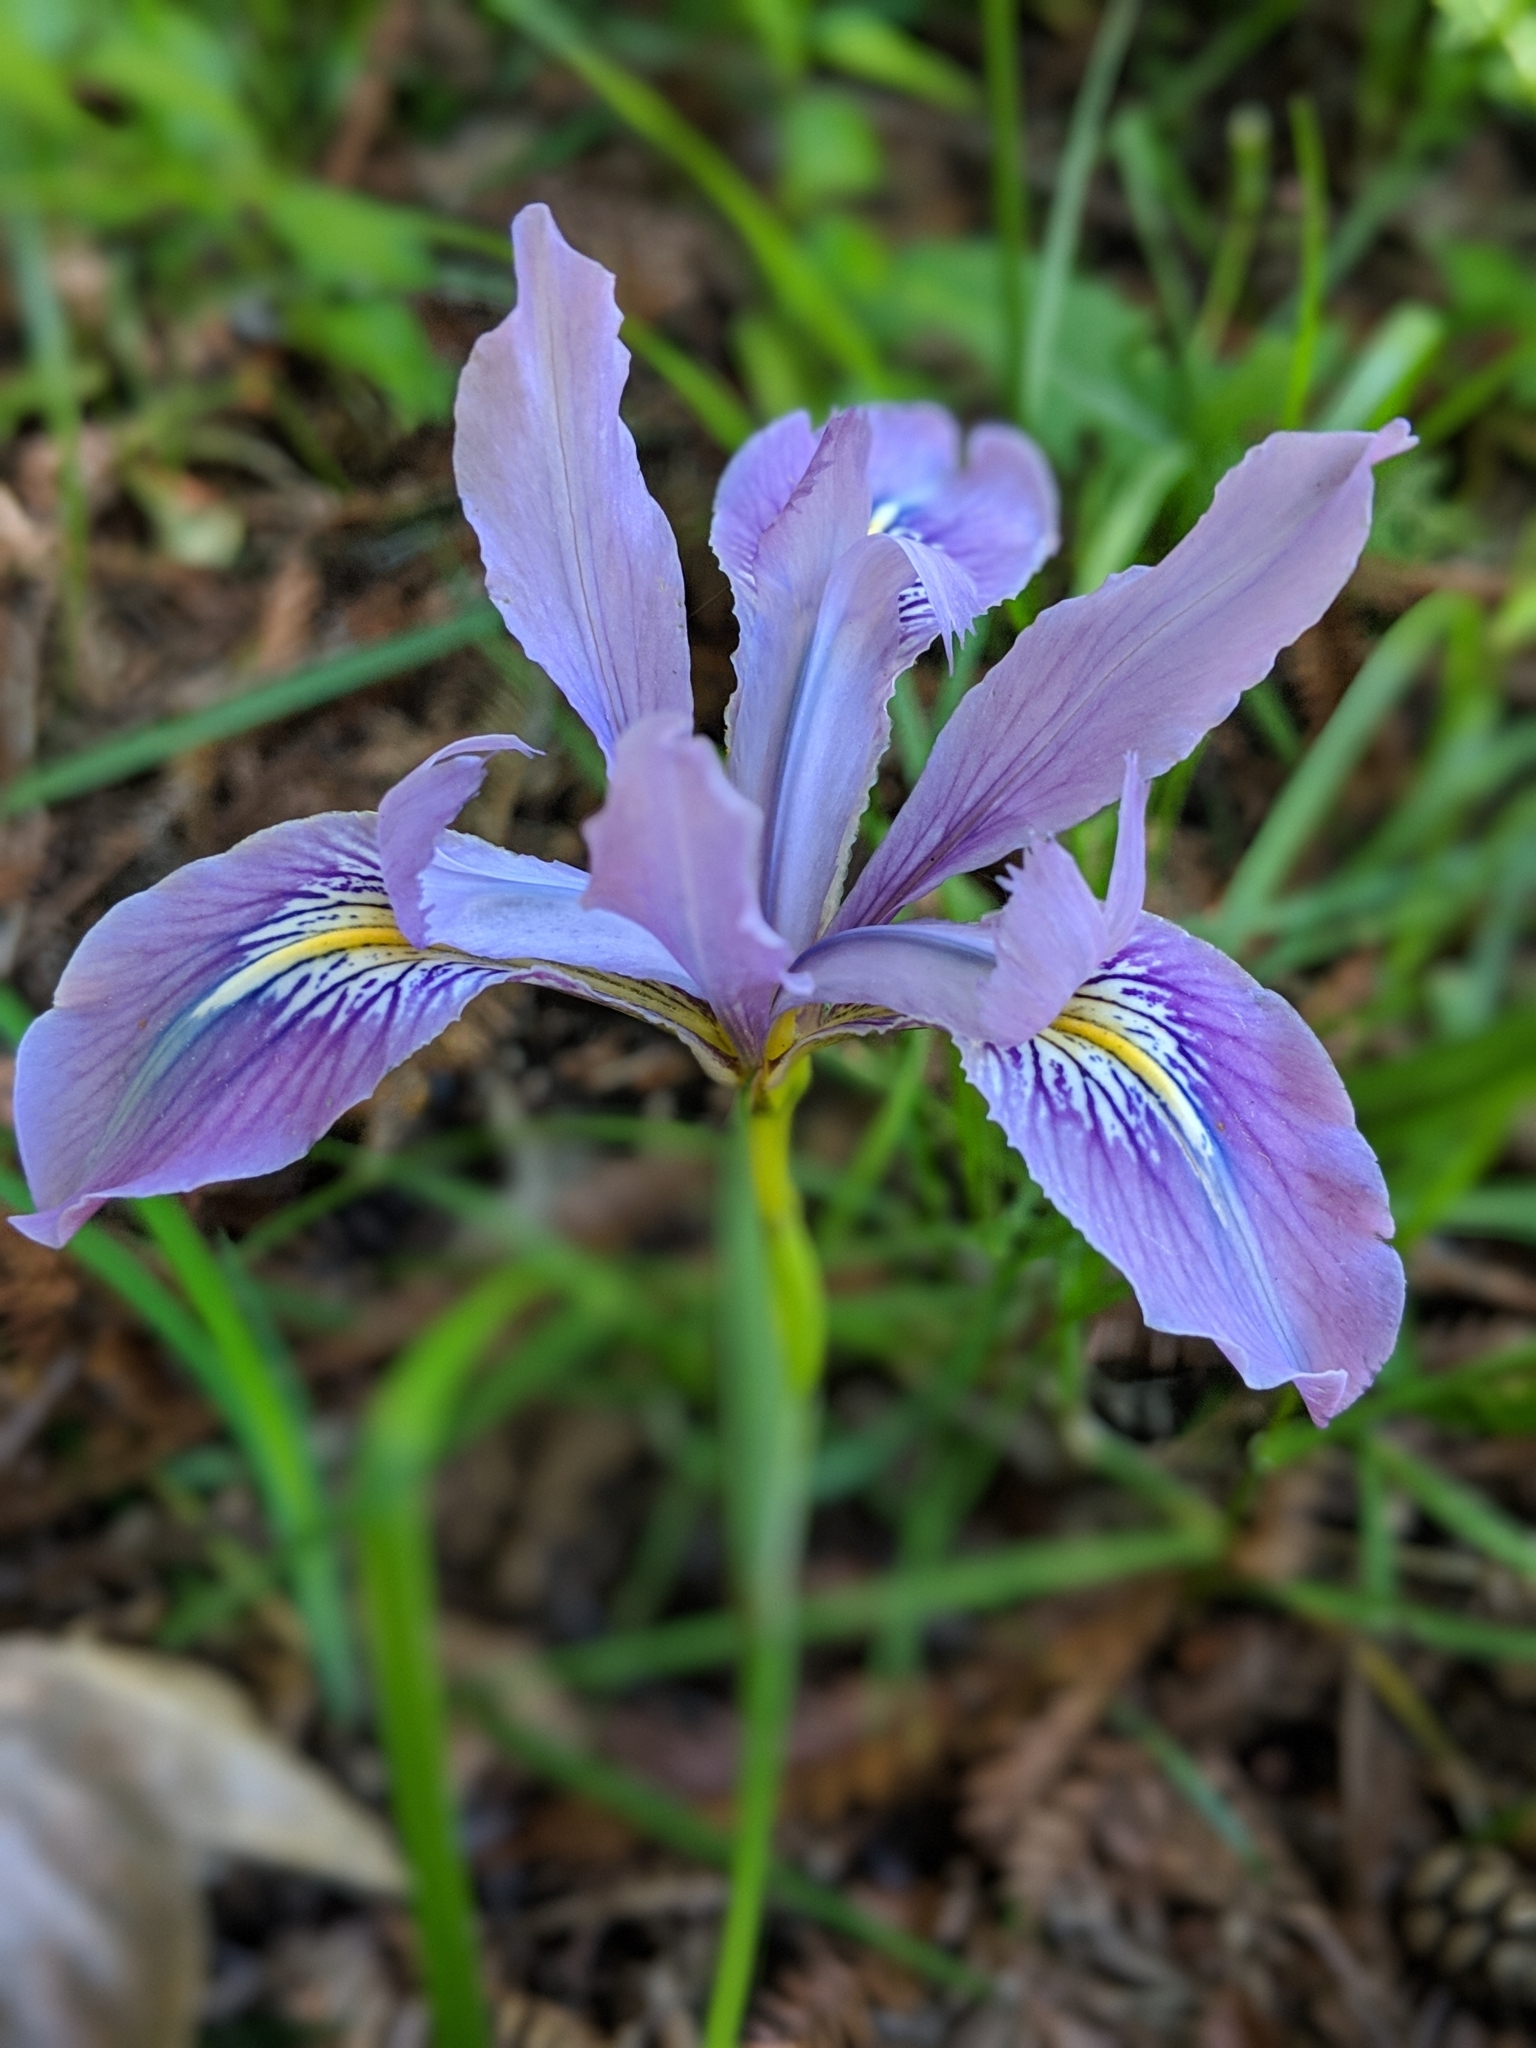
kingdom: Plantae
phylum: Tracheophyta
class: Liliopsida
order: Asparagales
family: Iridaceae
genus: Iris
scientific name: Iris douglasiana
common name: Marin iris
